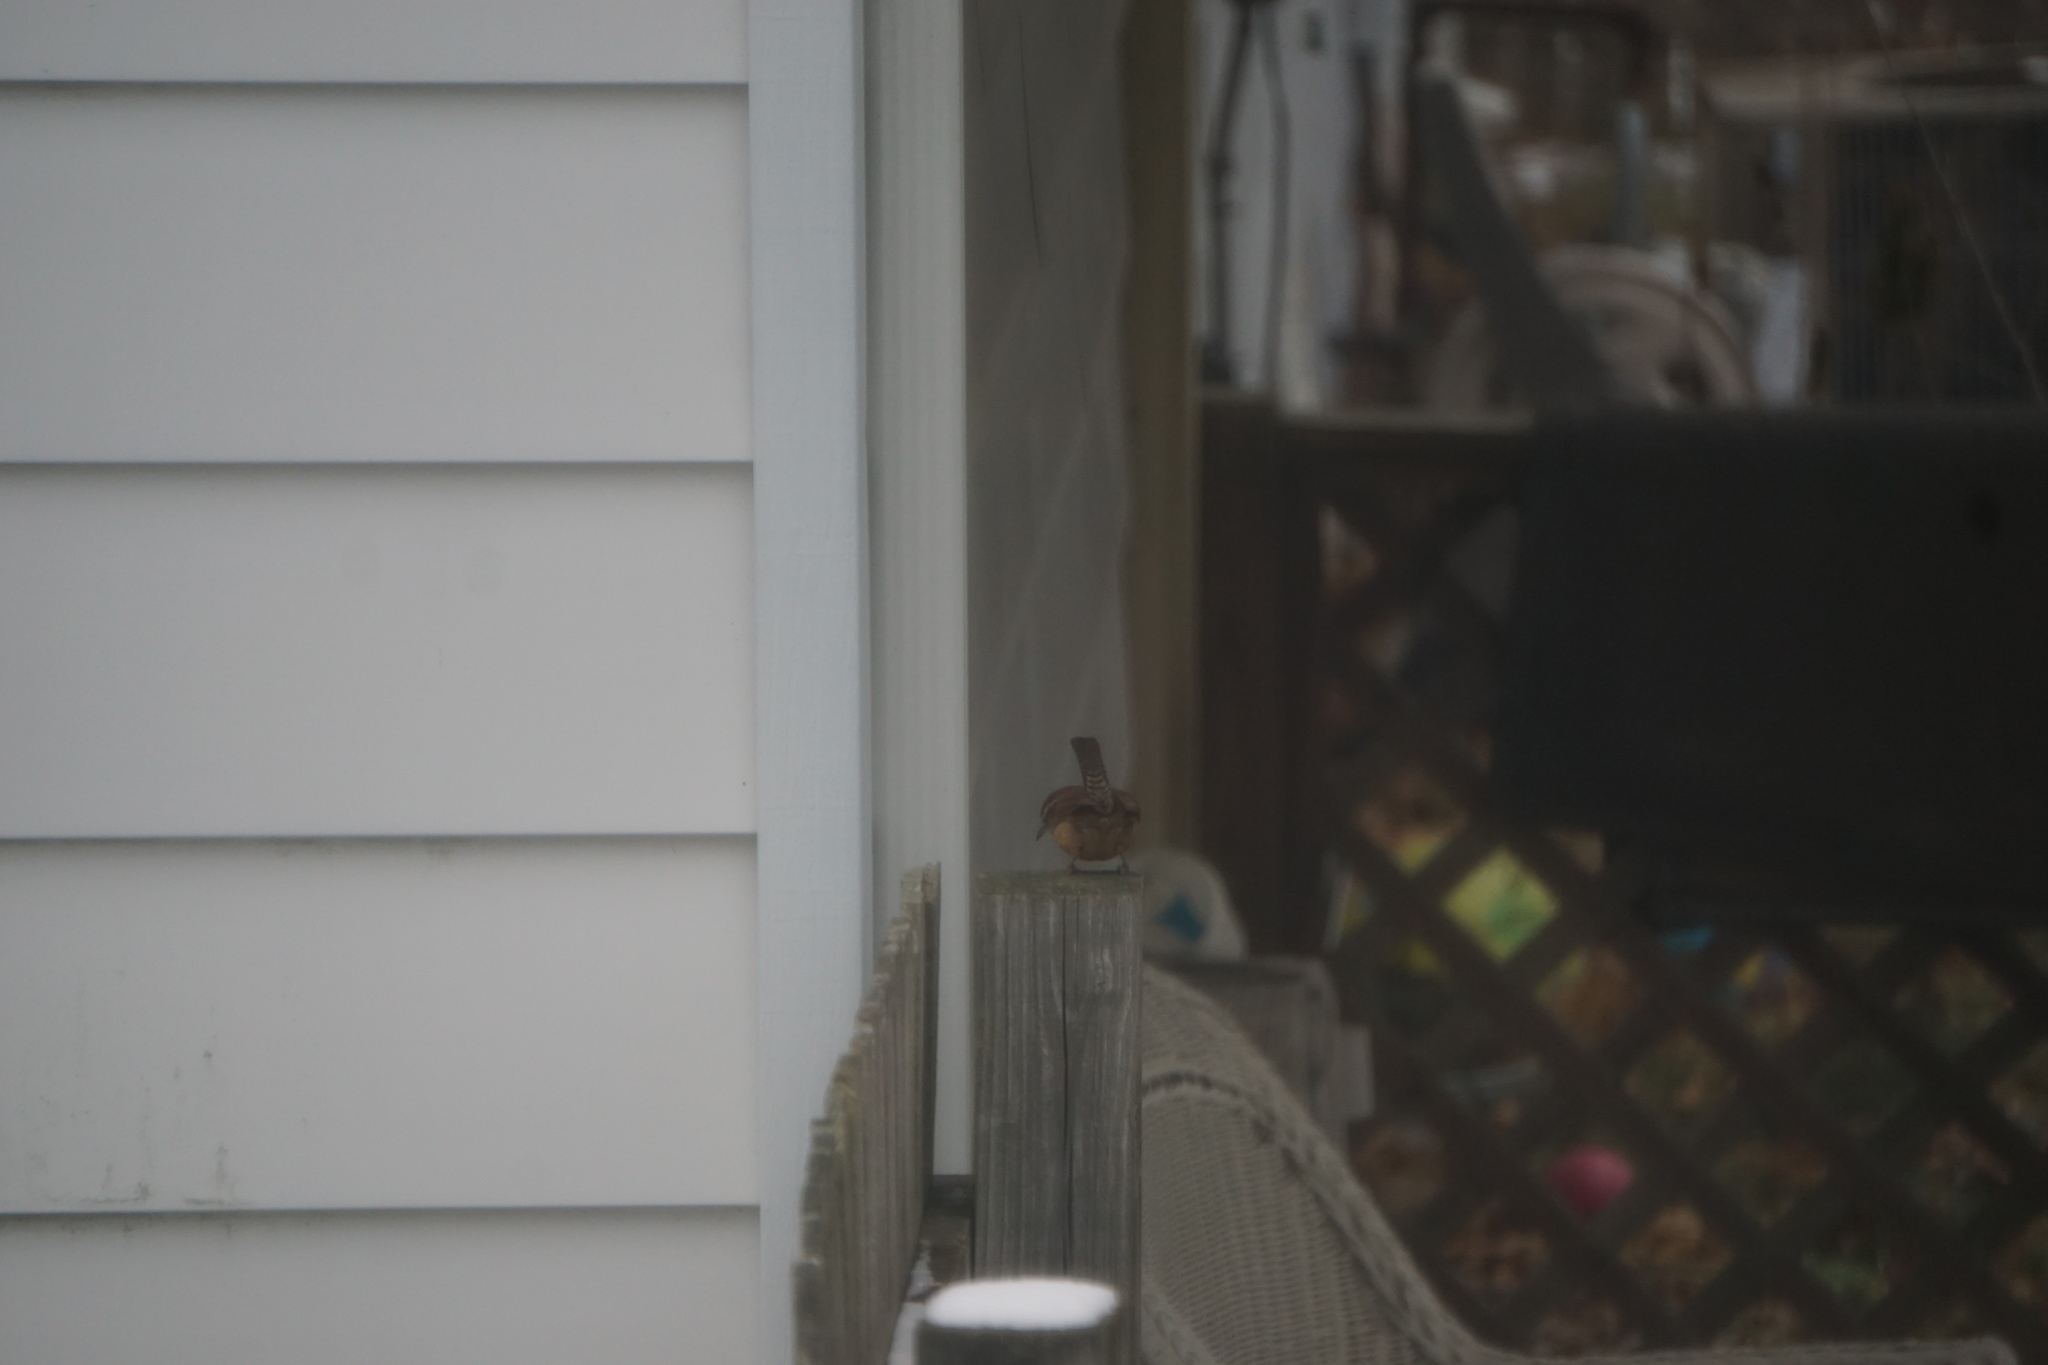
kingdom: Animalia
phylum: Chordata
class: Aves
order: Passeriformes
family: Troglodytidae
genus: Thryothorus
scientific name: Thryothorus ludovicianus
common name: Carolina wren
